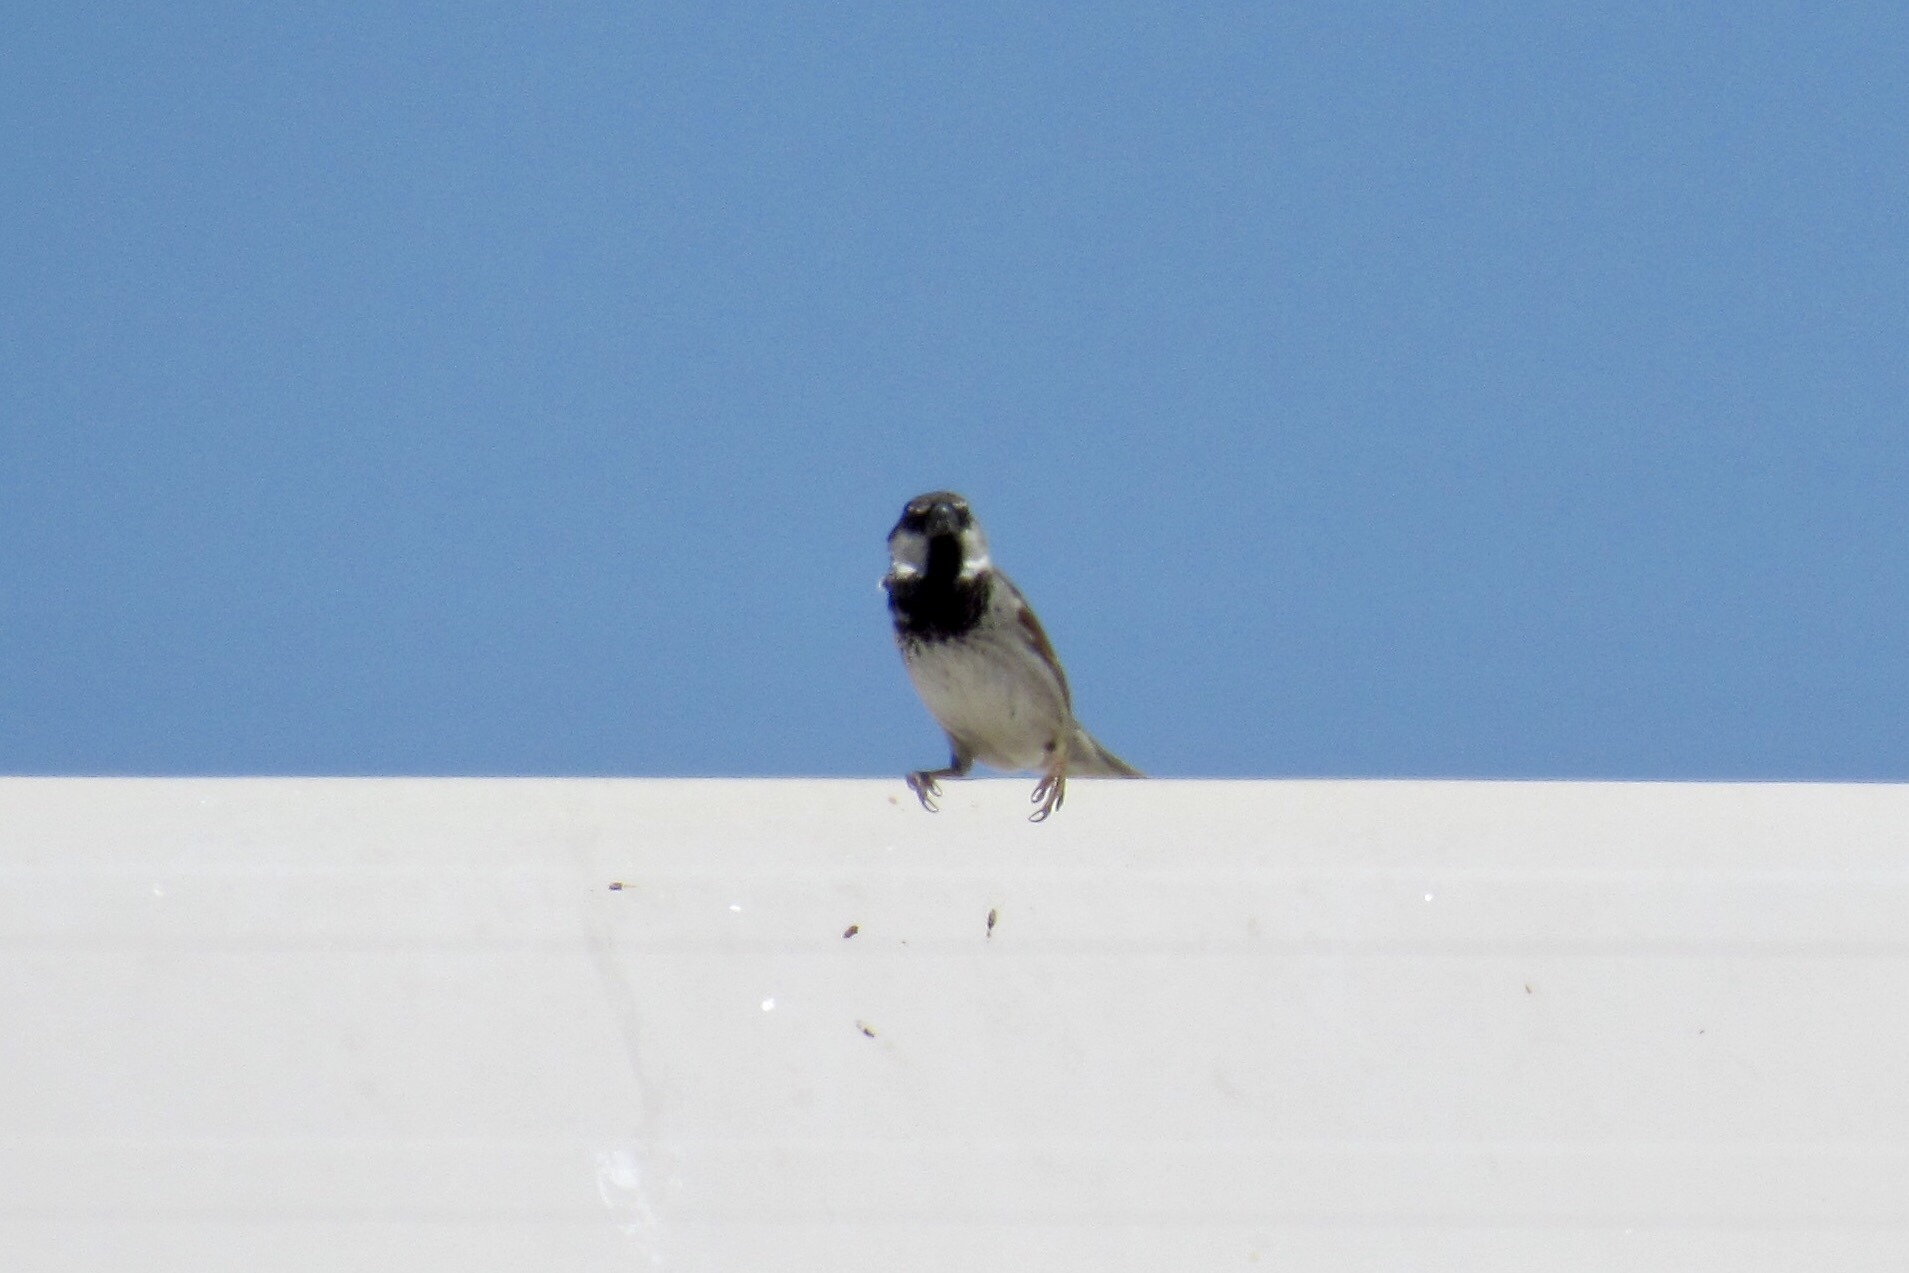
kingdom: Animalia
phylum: Chordata
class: Aves
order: Passeriformes
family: Passeridae
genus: Passer
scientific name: Passer domesticus
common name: House sparrow
